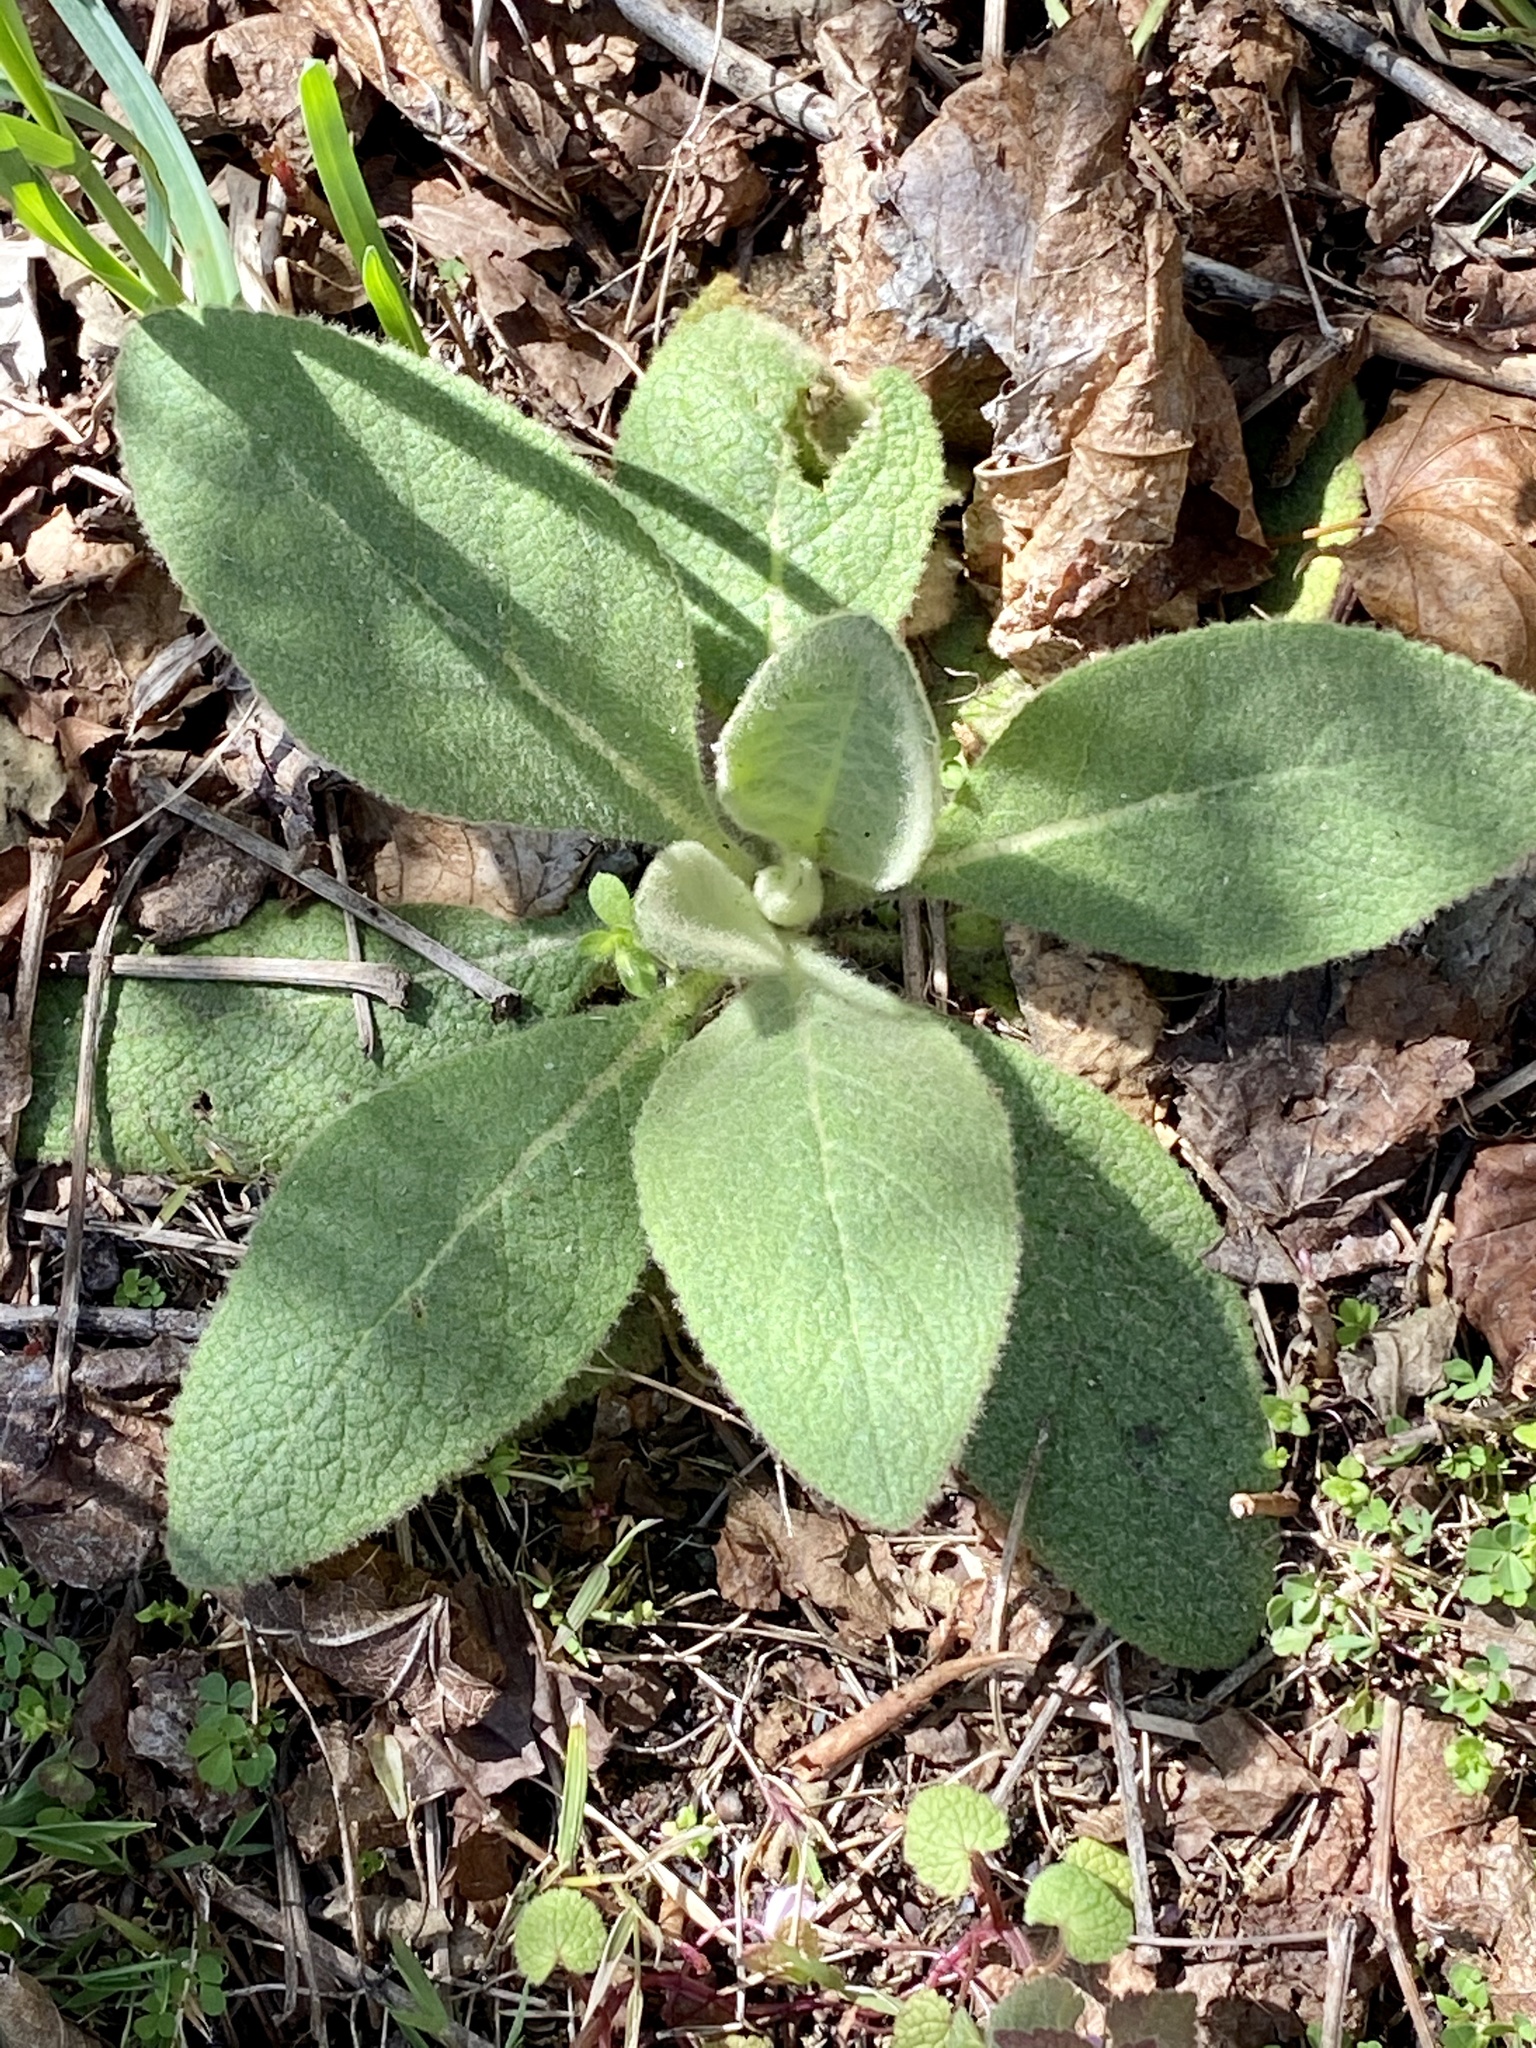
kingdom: Plantae
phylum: Tracheophyta
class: Magnoliopsida
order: Lamiales
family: Scrophulariaceae
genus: Verbascum
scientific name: Verbascum thapsus
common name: Common mullein
